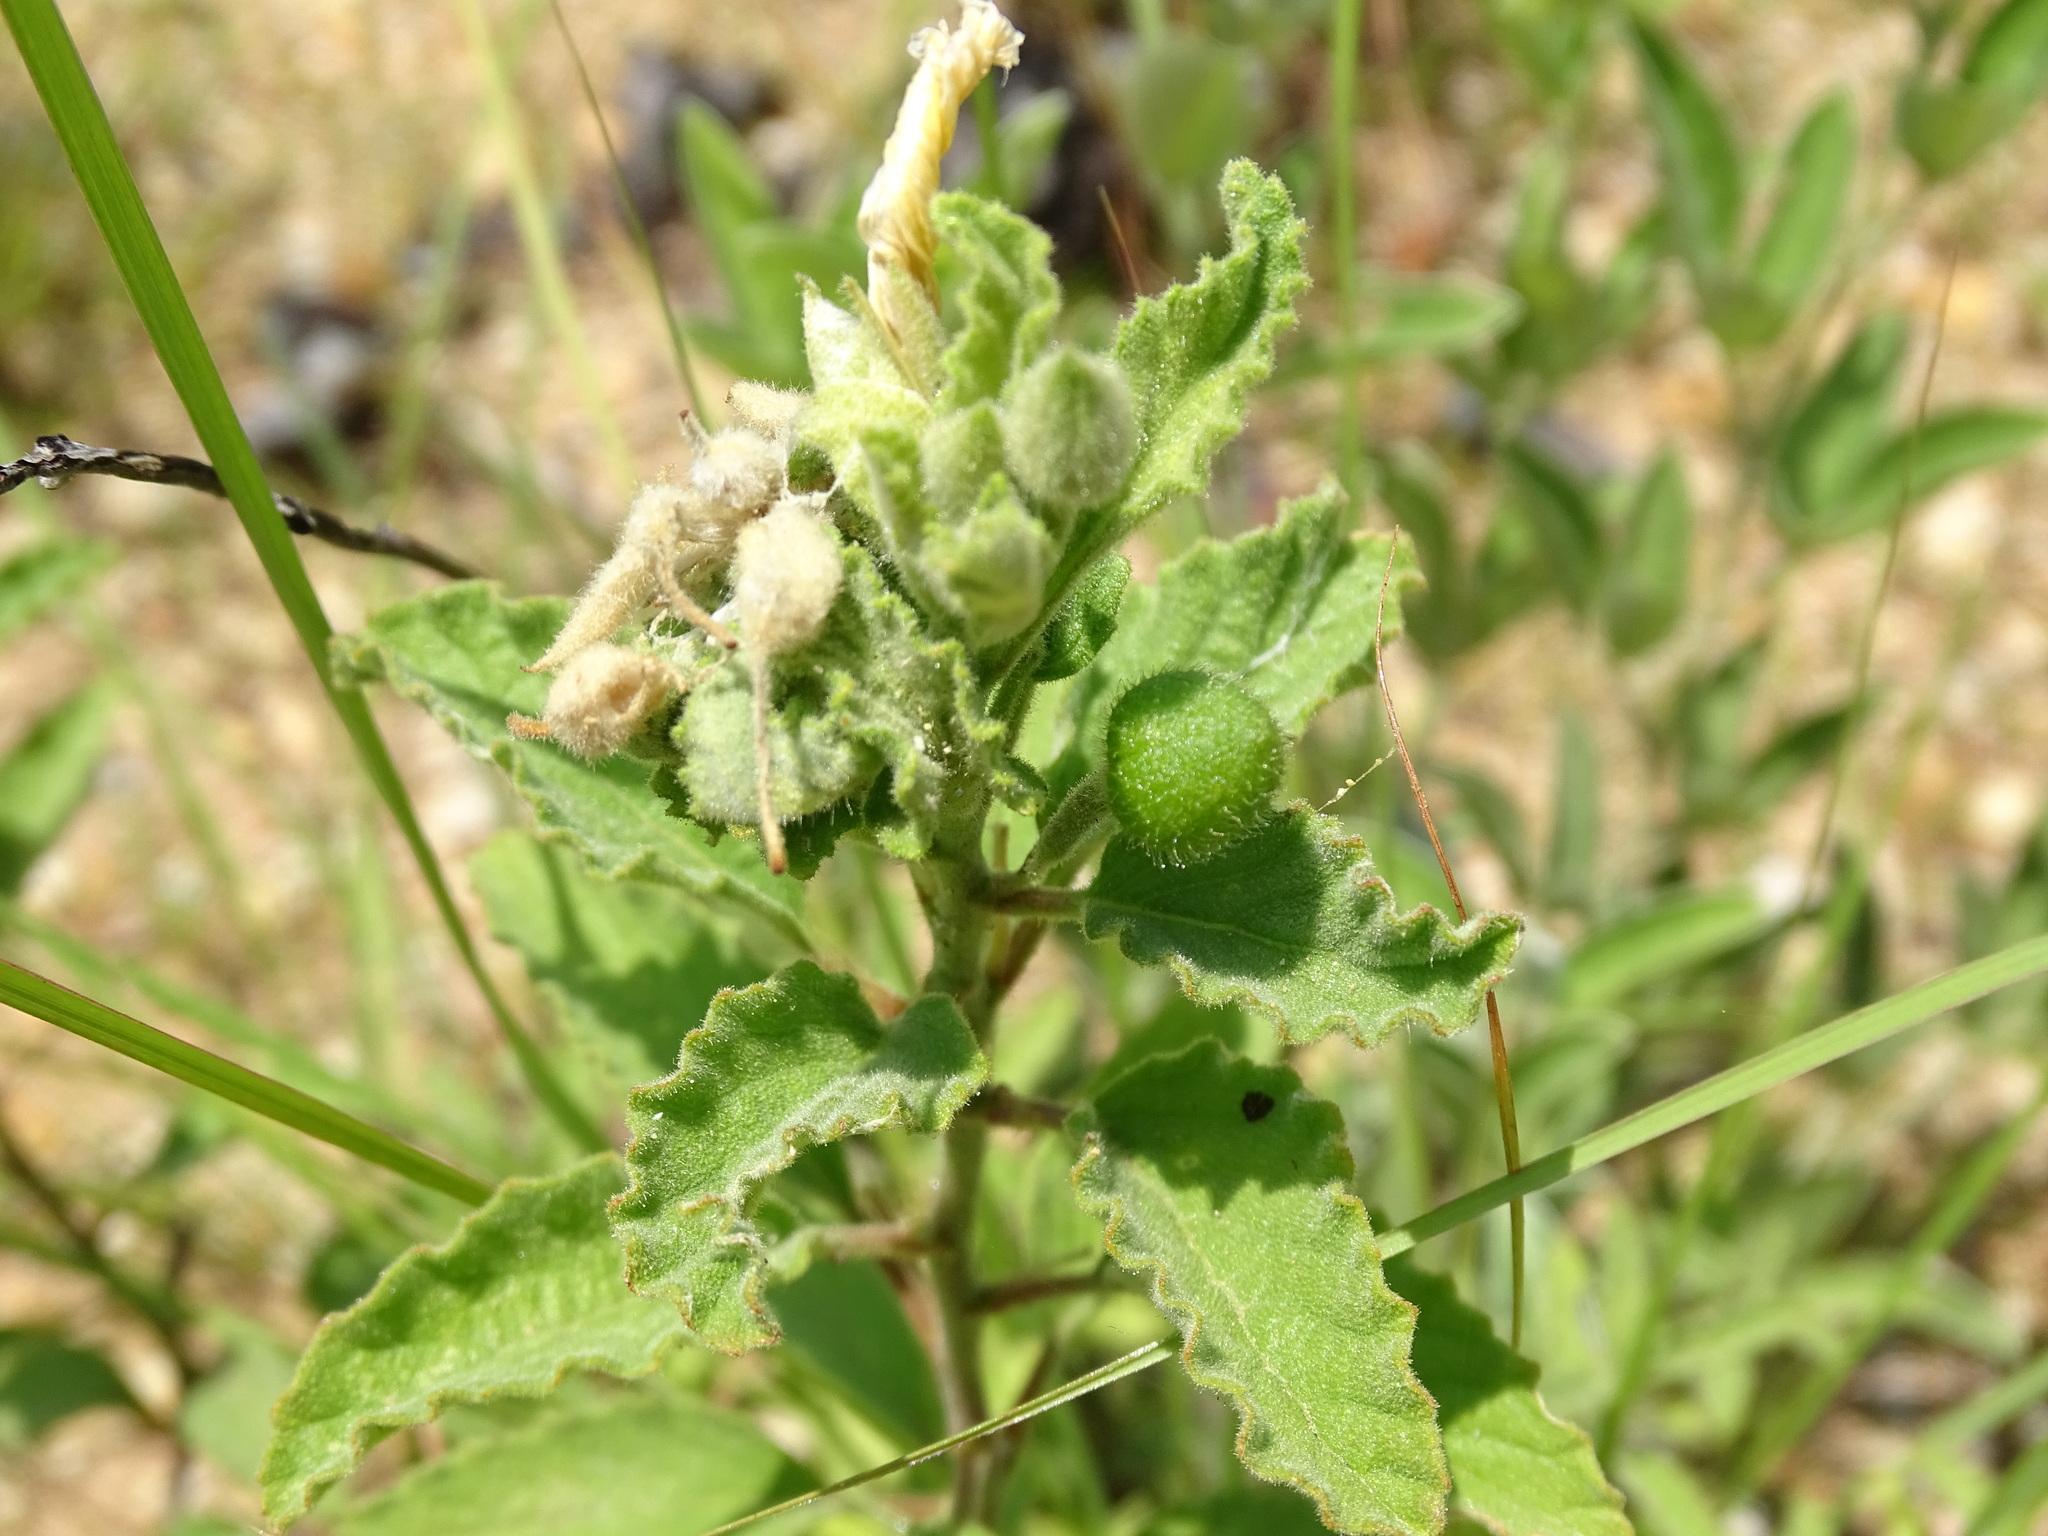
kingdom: Plantae
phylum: Tracheophyta
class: Magnoliopsida
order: Malpighiales
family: Turneraceae
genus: Piriqueta
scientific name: Piriqueta mortonii
